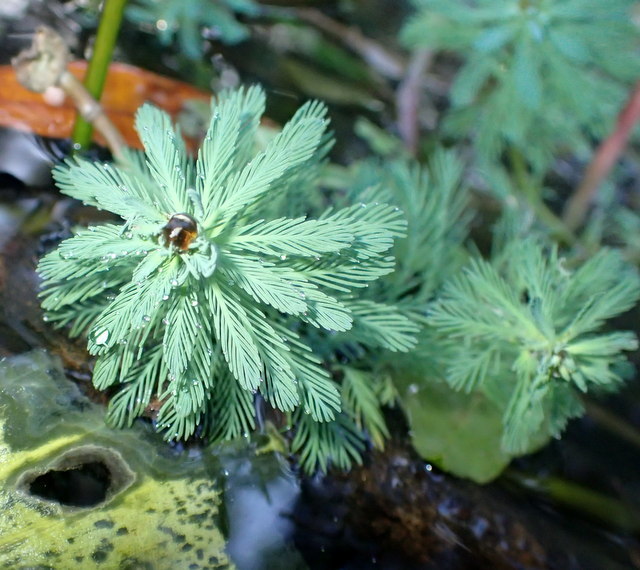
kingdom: Plantae
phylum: Tracheophyta
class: Magnoliopsida
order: Saxifragales
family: Haloragaceae
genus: Myriophyllum
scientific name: Myriophyllum aquaticum
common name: Parrot's feather
